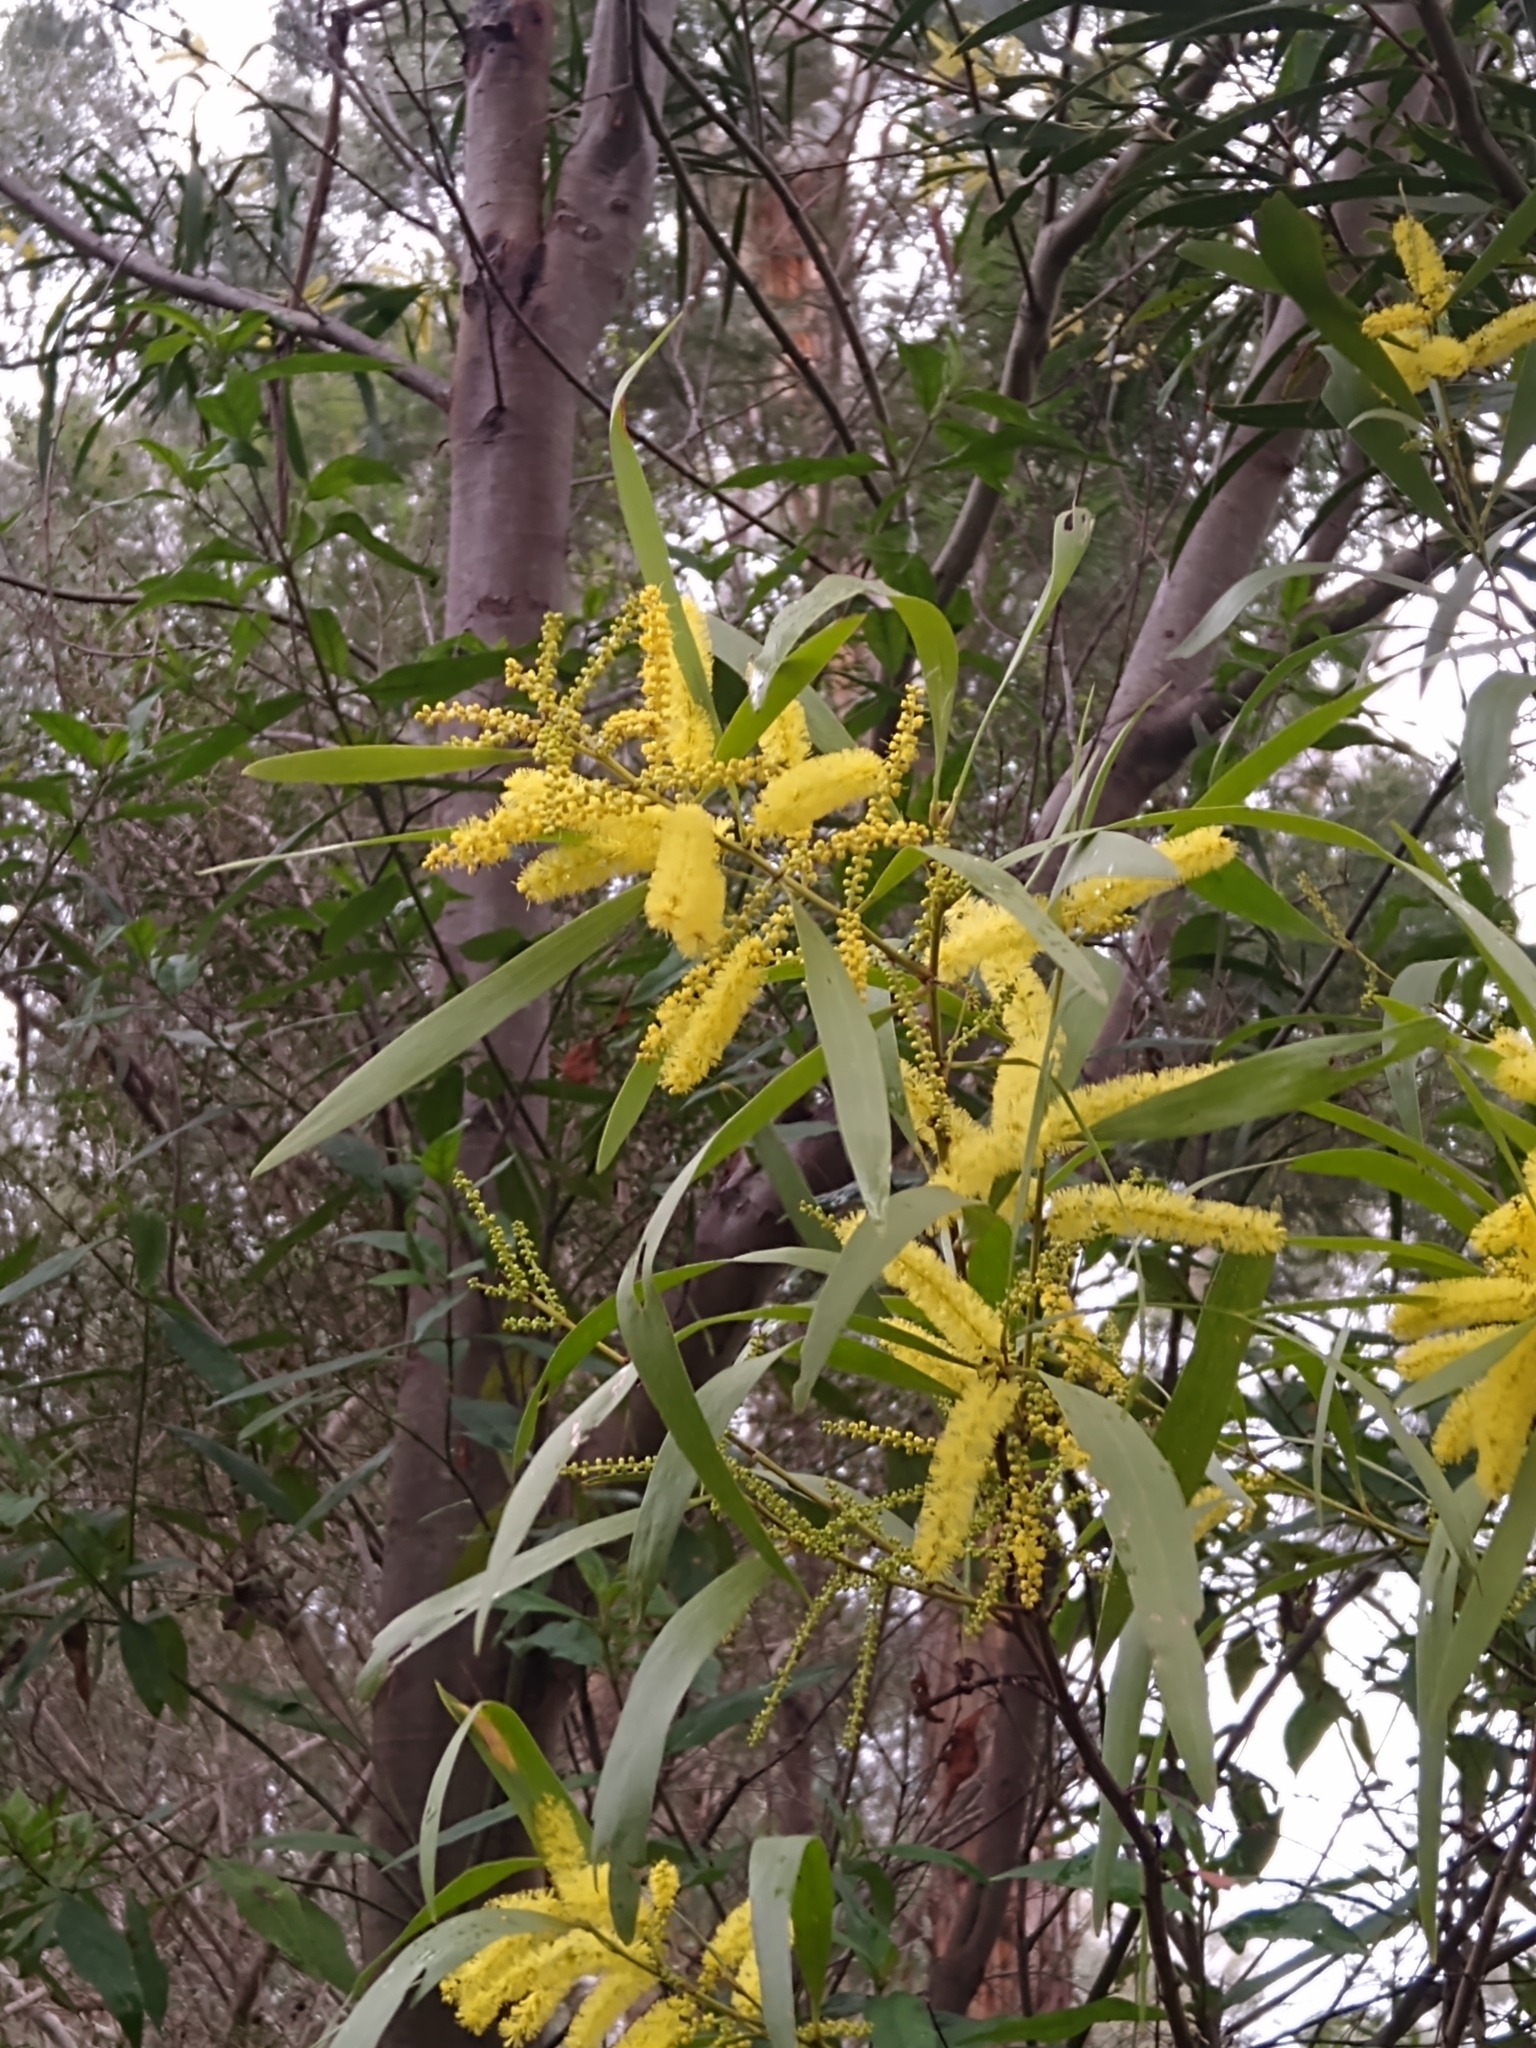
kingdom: Plantae
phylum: Tracheophyta
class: Magnoliopsida
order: Fabales
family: Fabaceae
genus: Acacia
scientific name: Acacia longifolia
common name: Sydney golden wattle
